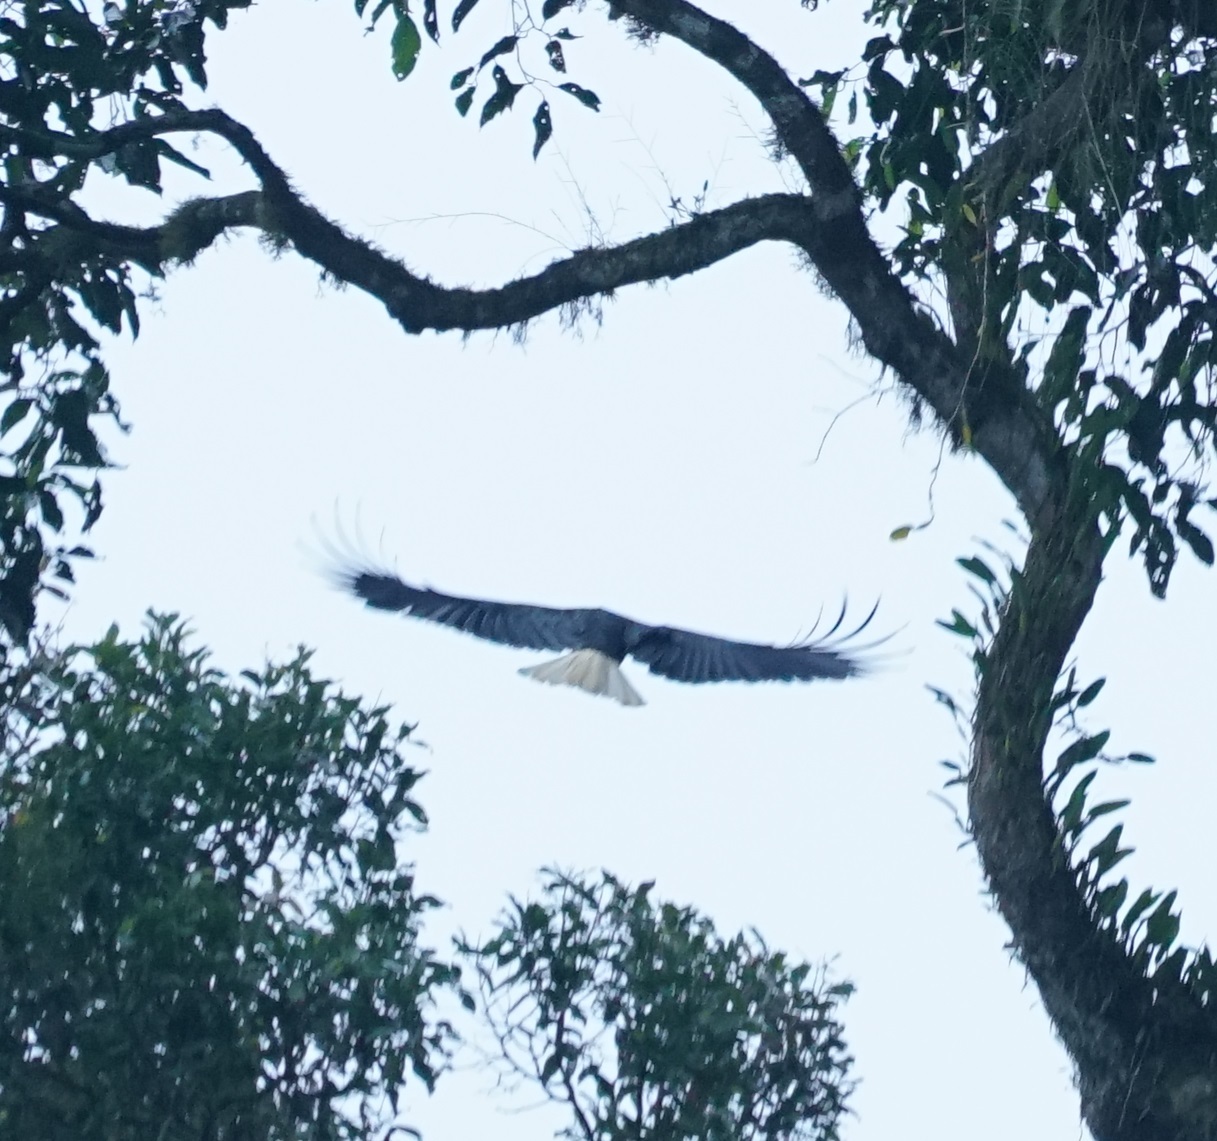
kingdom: Animalia
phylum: Chordata
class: Aves
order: Bucerotiformes
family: Bucerotidae
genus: Rhyticeros
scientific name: Rhyticeros undulatus
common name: Wreathed hornbill
